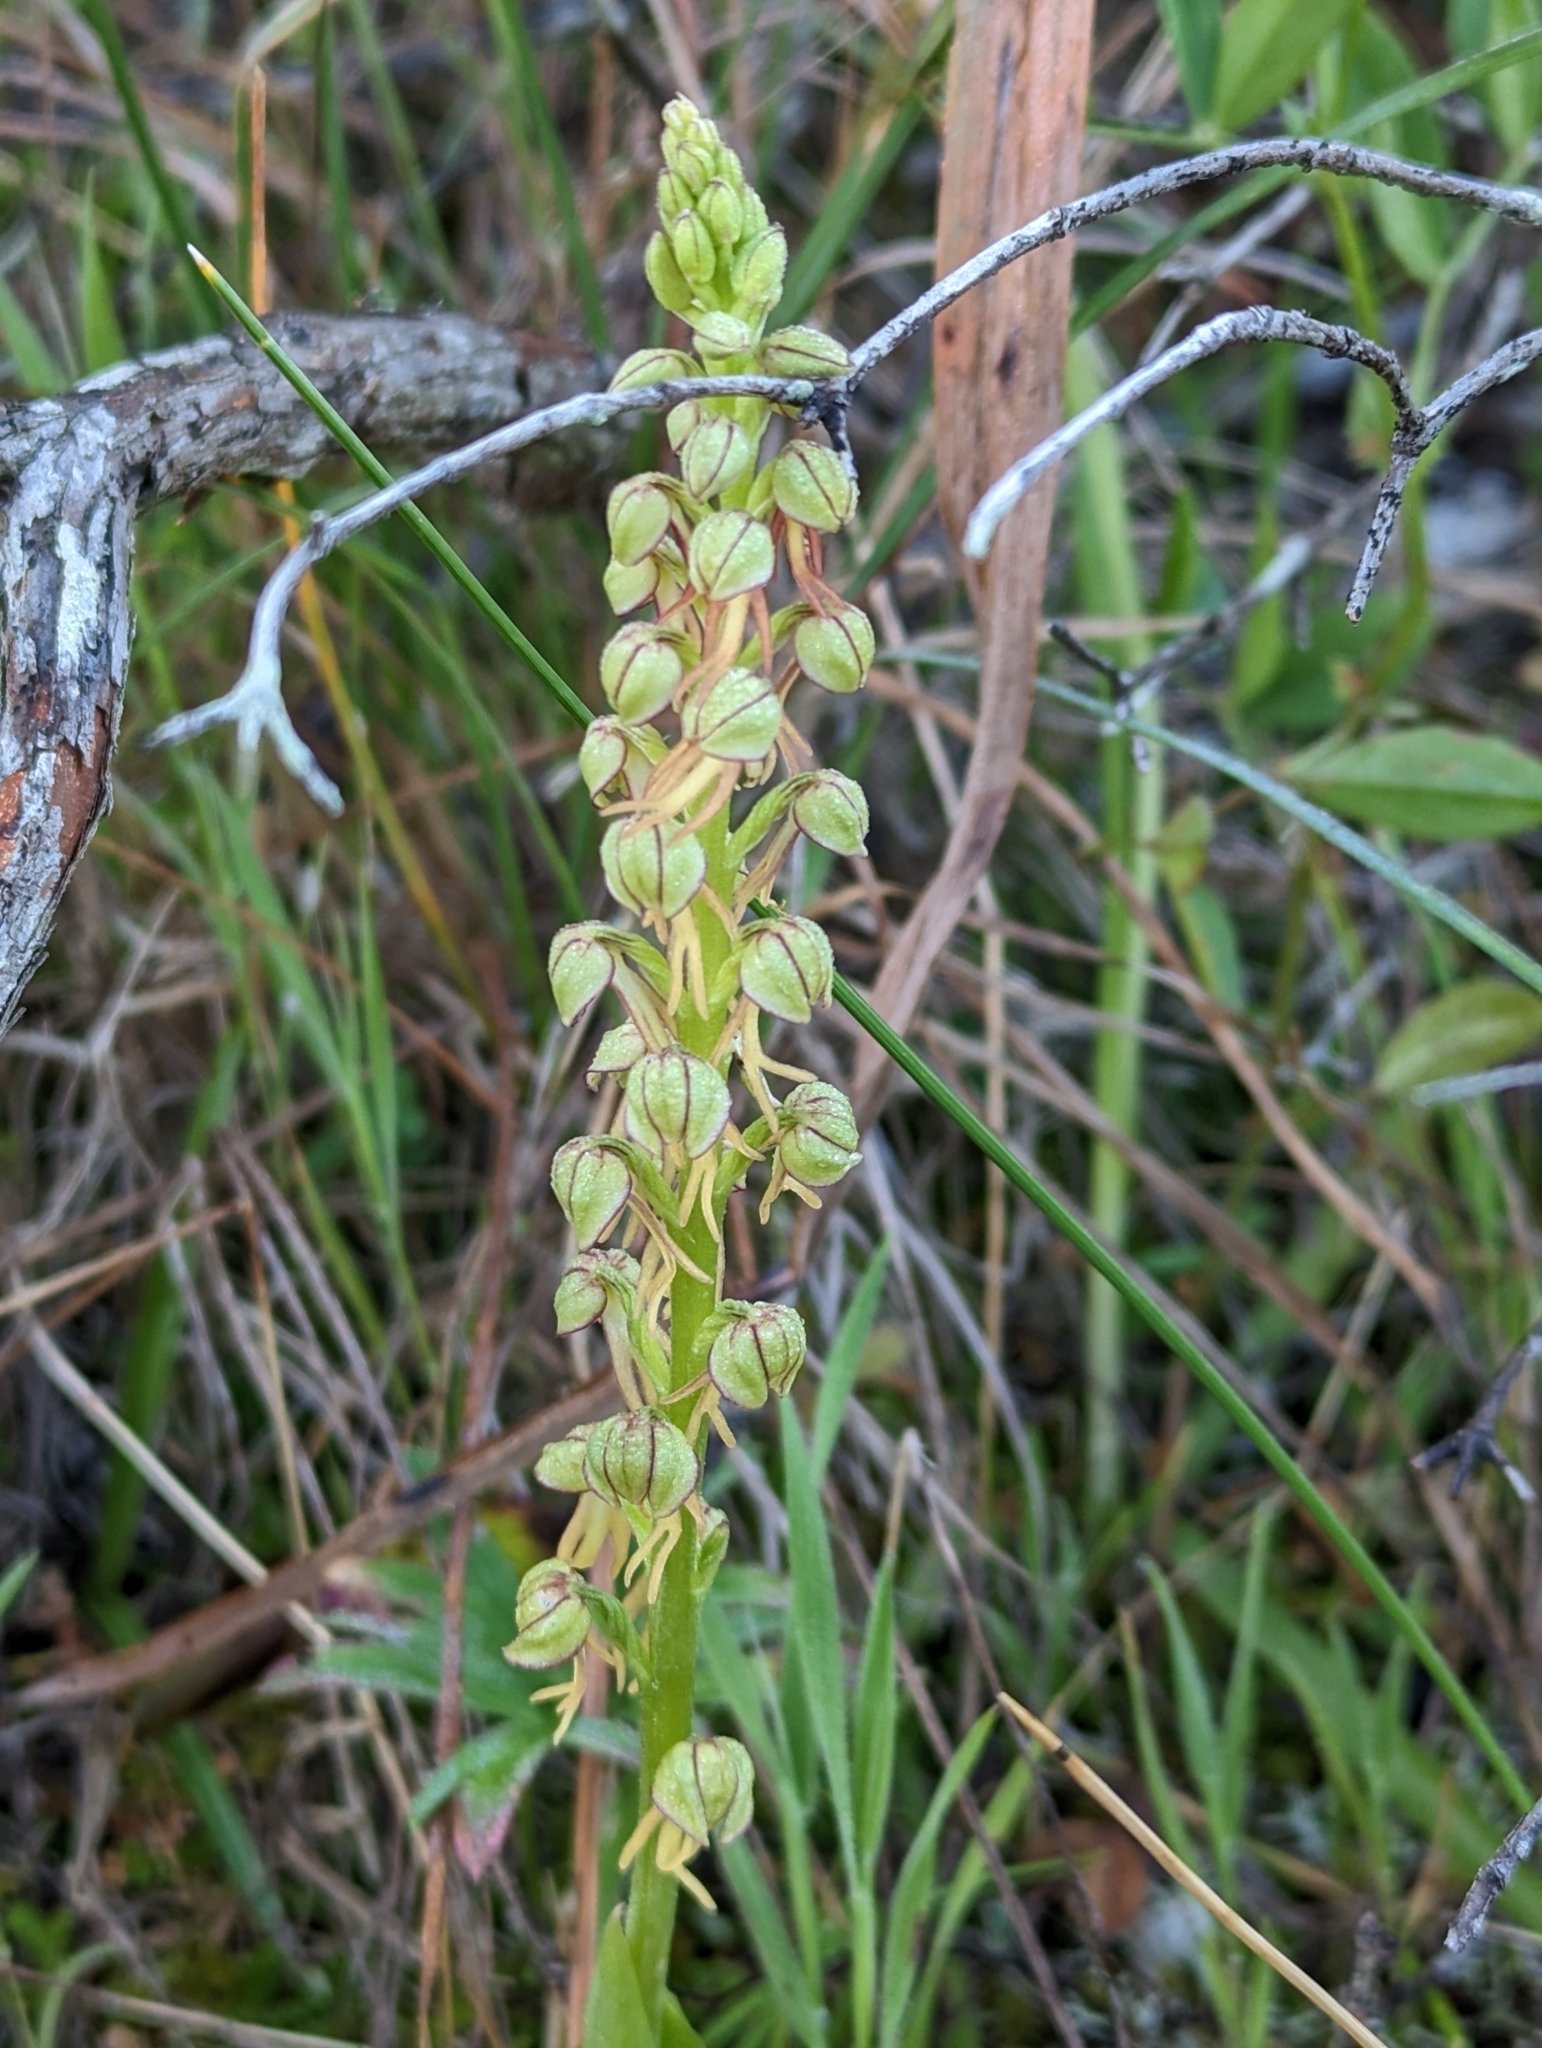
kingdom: Plantae
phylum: Tracheophyta
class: Liliopsida
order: Asparagales
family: Orchidaceae
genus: Orchis
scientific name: Orchis anthropophora
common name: Man orchid
